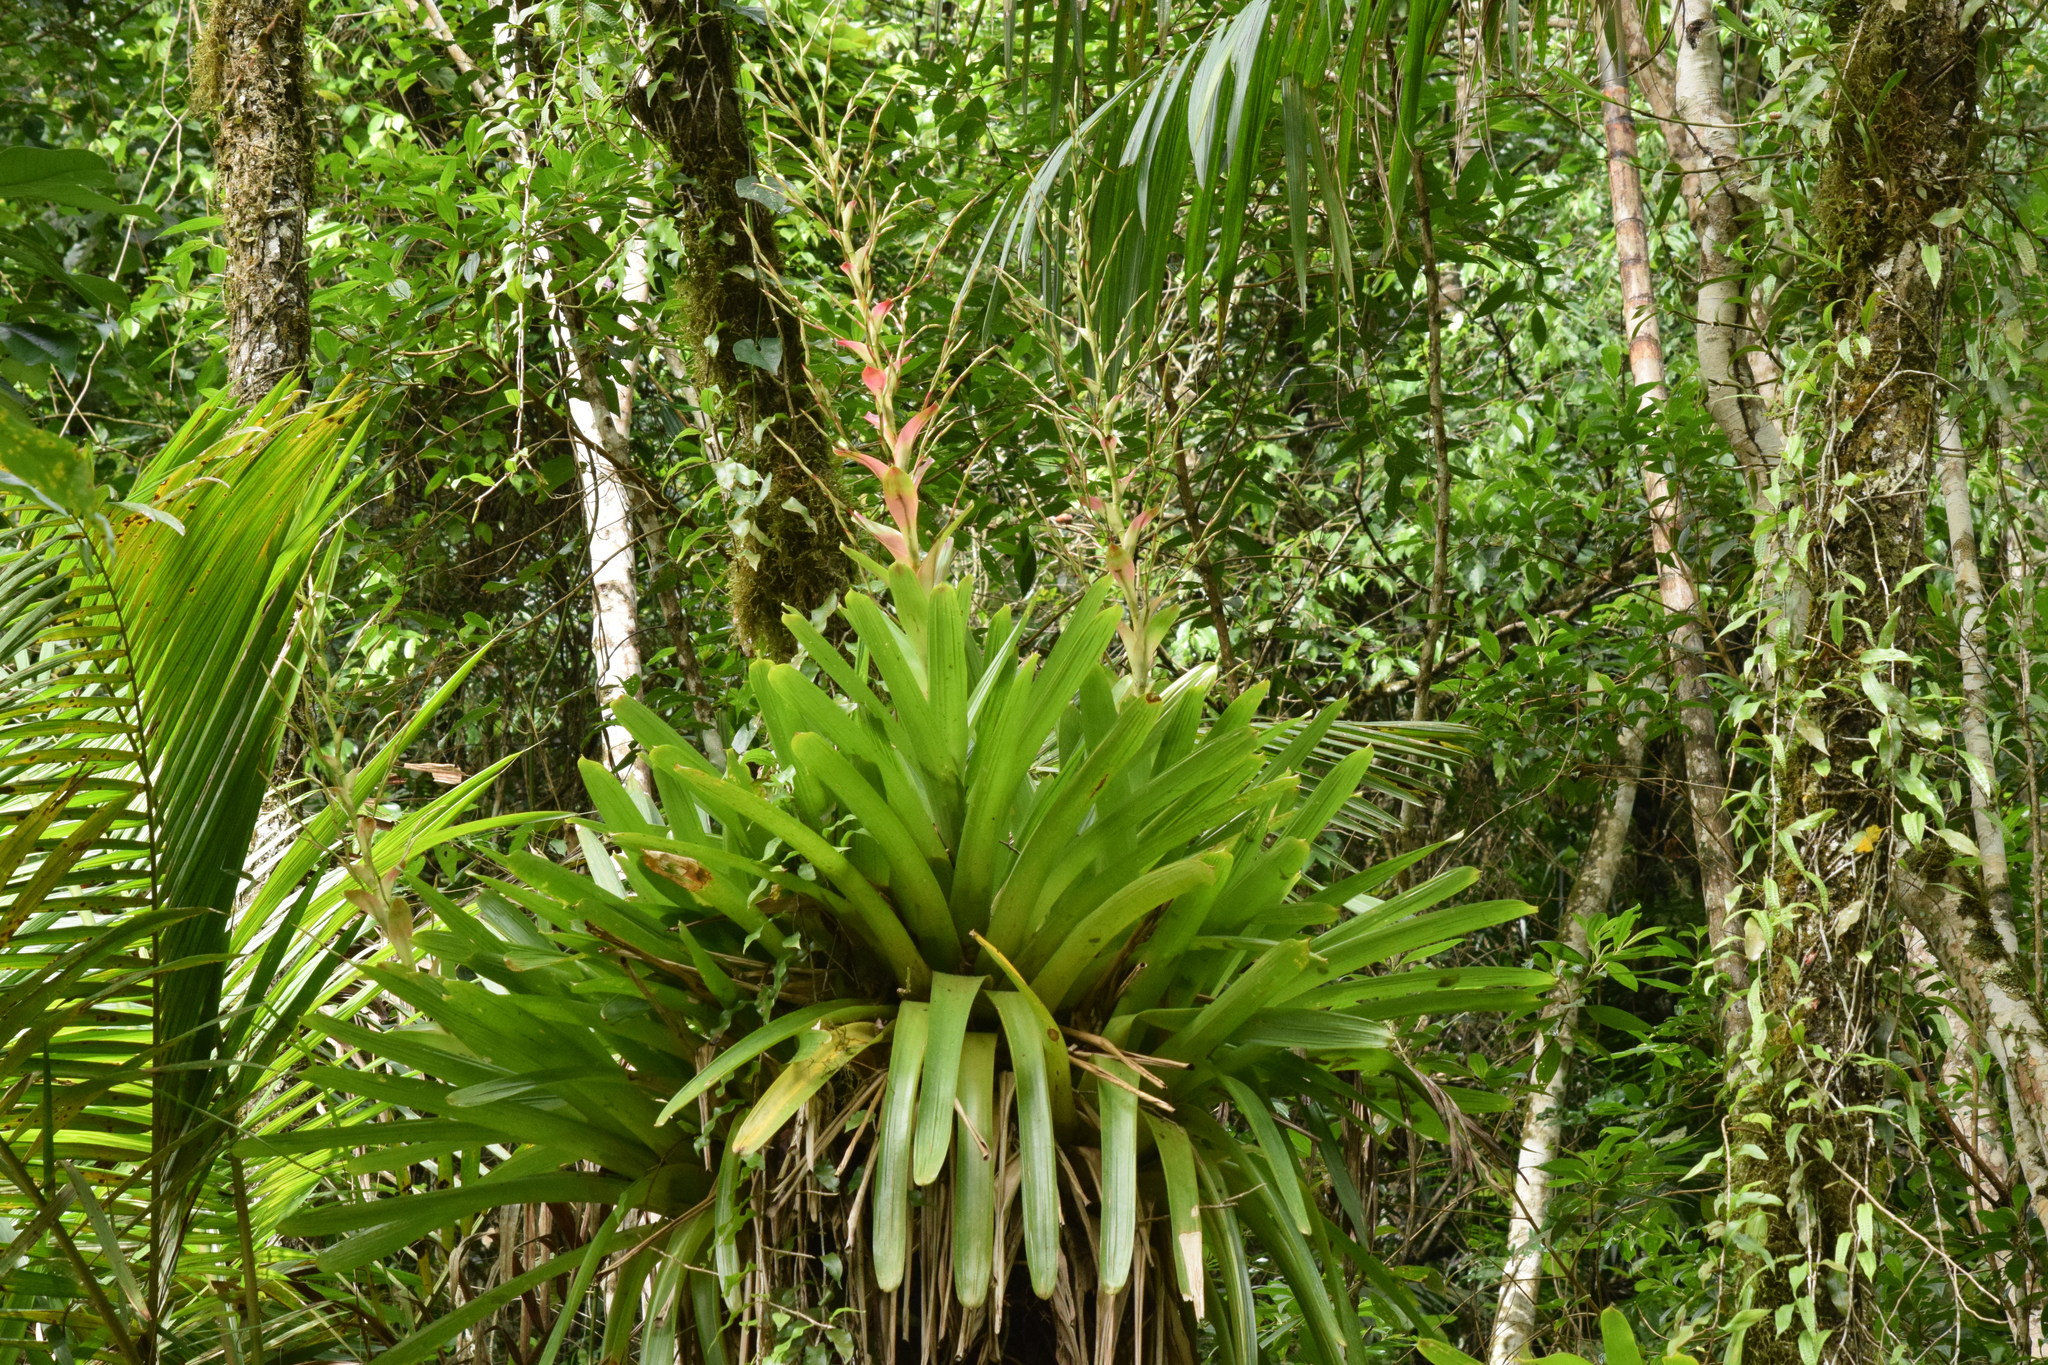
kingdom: Plantae
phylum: Tracheophyta
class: Liliopsida
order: Poales
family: Bromeliaceae
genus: Vriesea
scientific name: Vriesea philippocoburgi
